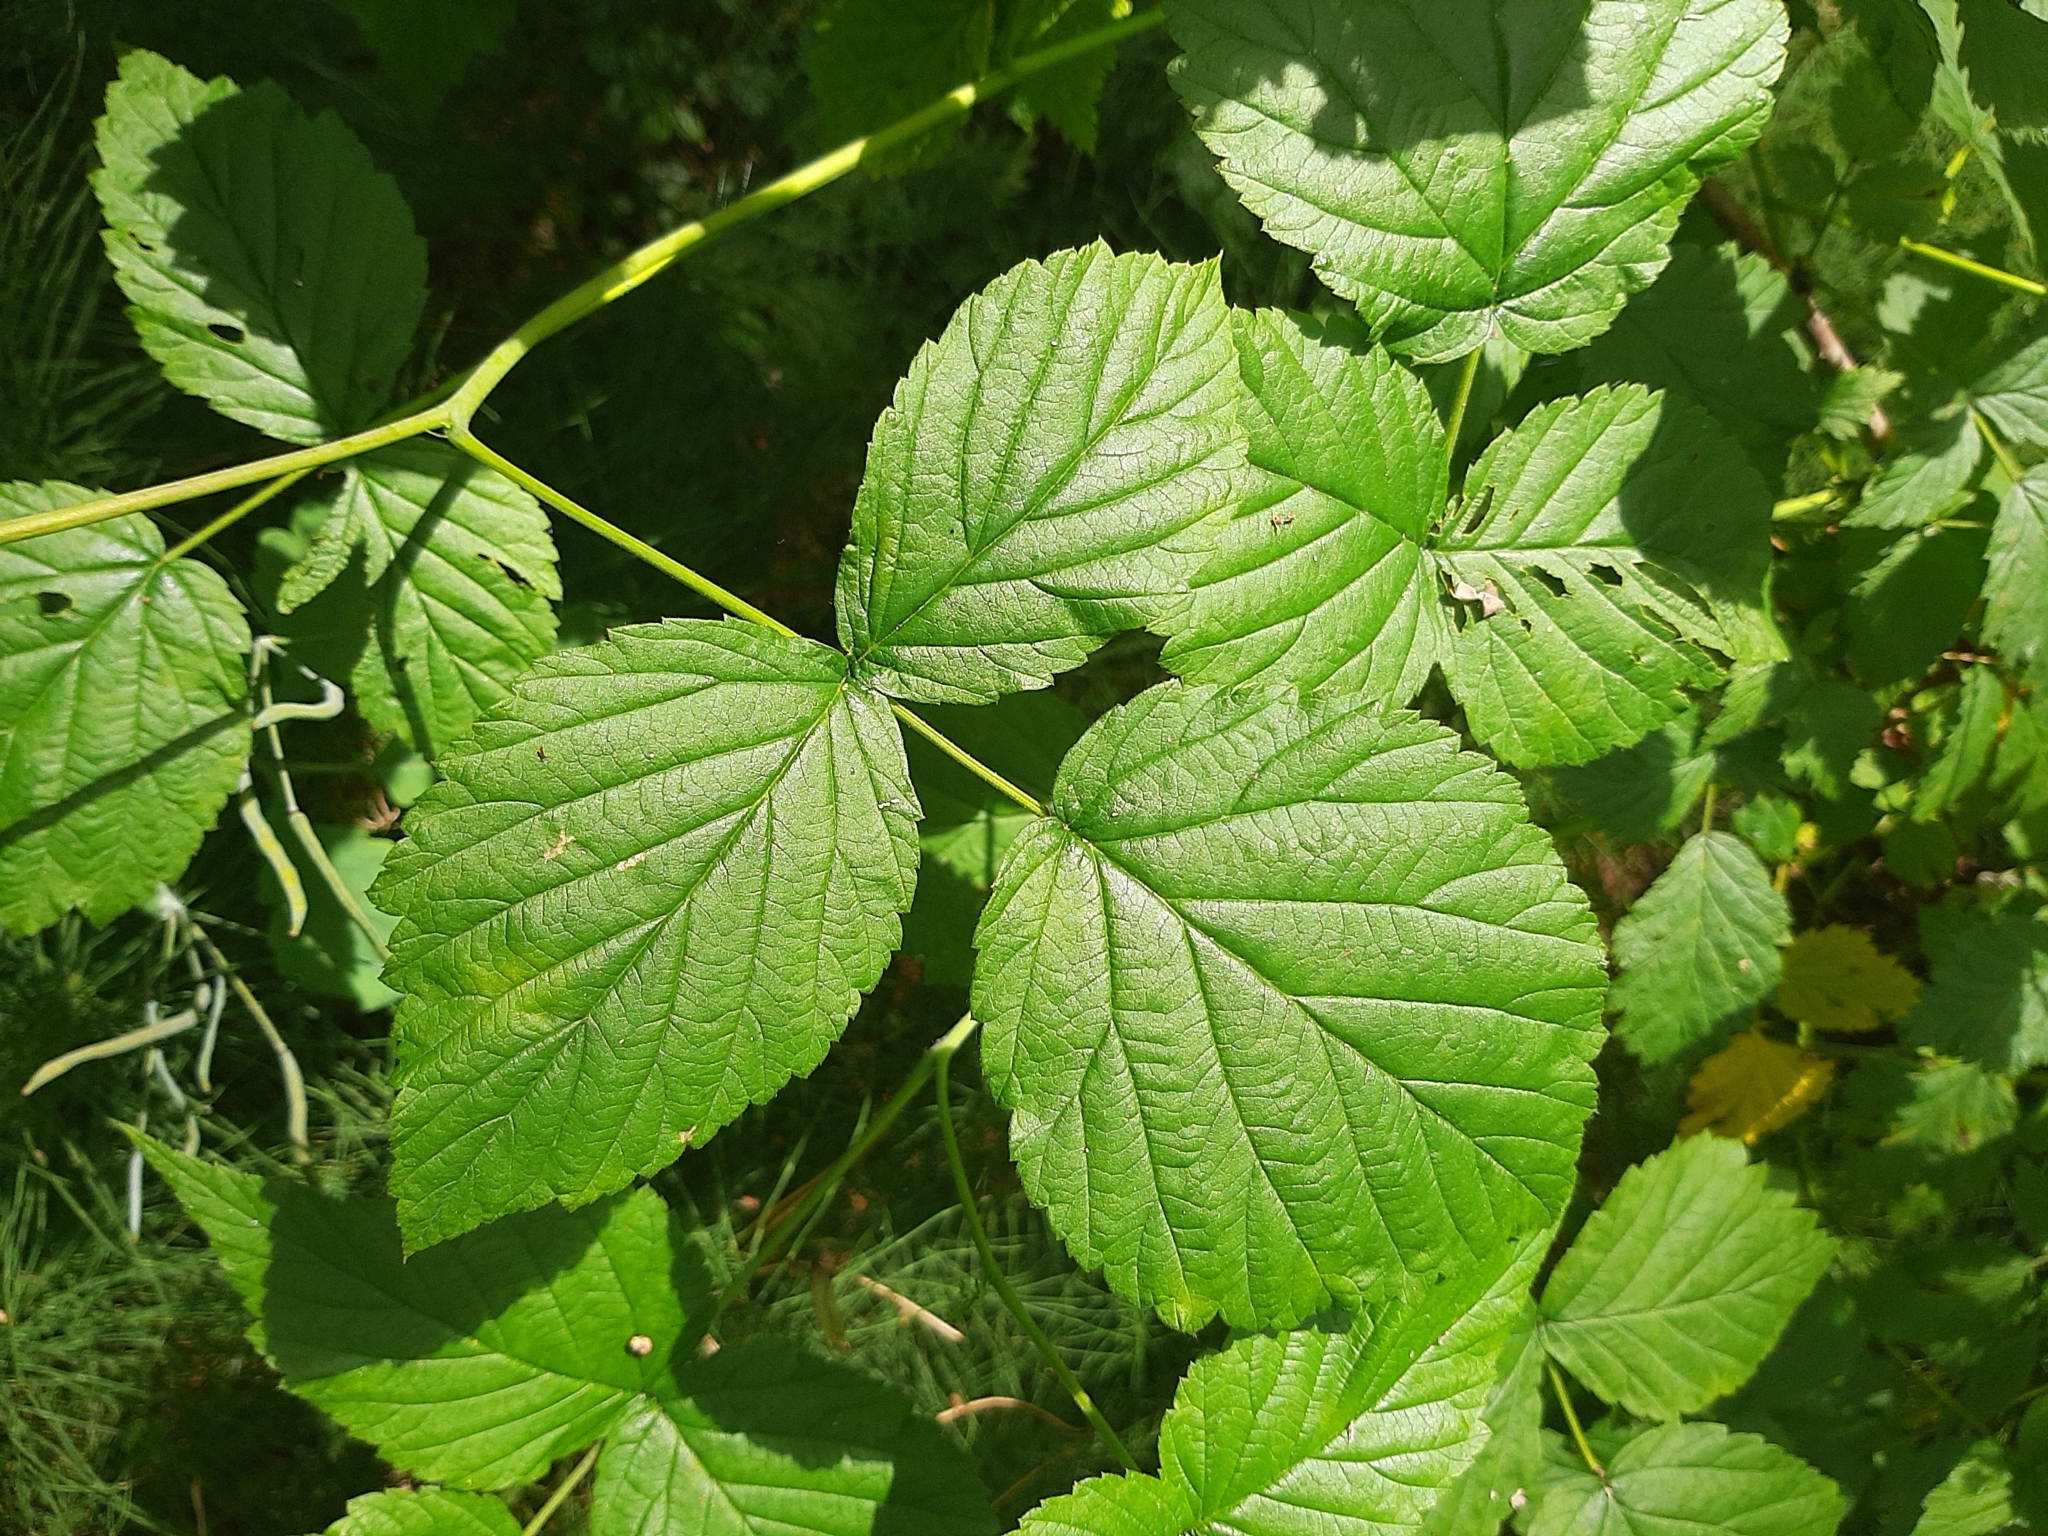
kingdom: Plantae
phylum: Tracheophyta
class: Magnoliopsida
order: Rosales
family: Rosaceae
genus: Rubus
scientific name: Rubus idaeus
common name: Raspberry
